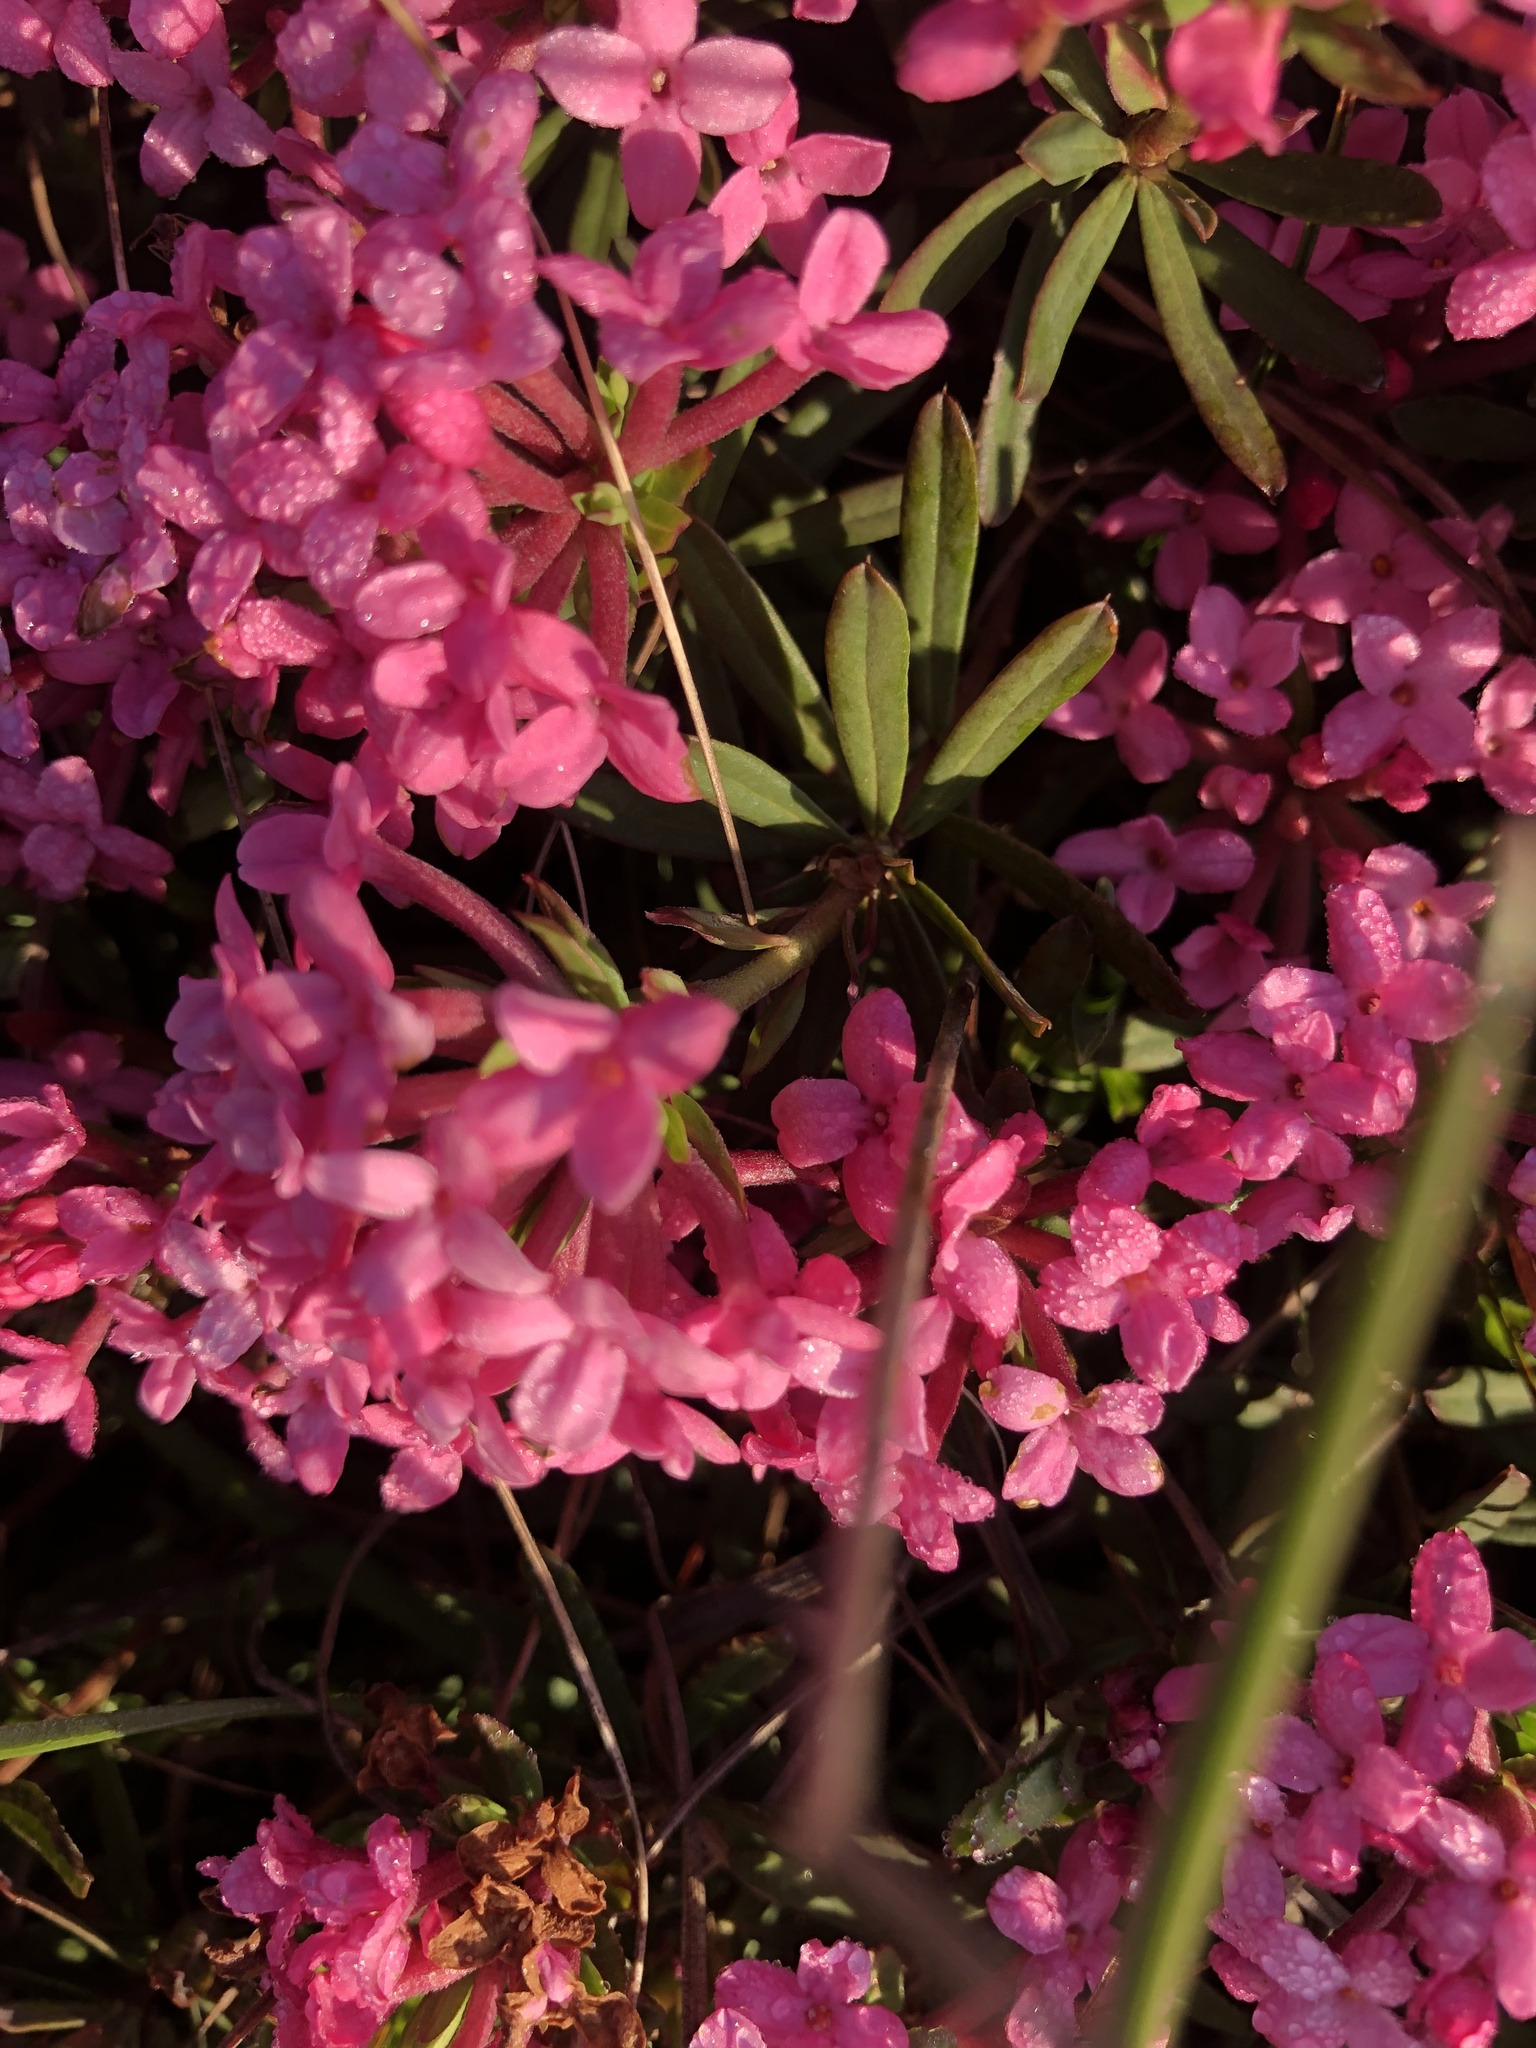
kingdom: Plantae
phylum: Tracheophyta
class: Magnoliopsida
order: Malvales
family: Thymelaeaceae
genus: Daphne
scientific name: Daphne cneorum
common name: Garland-flower
